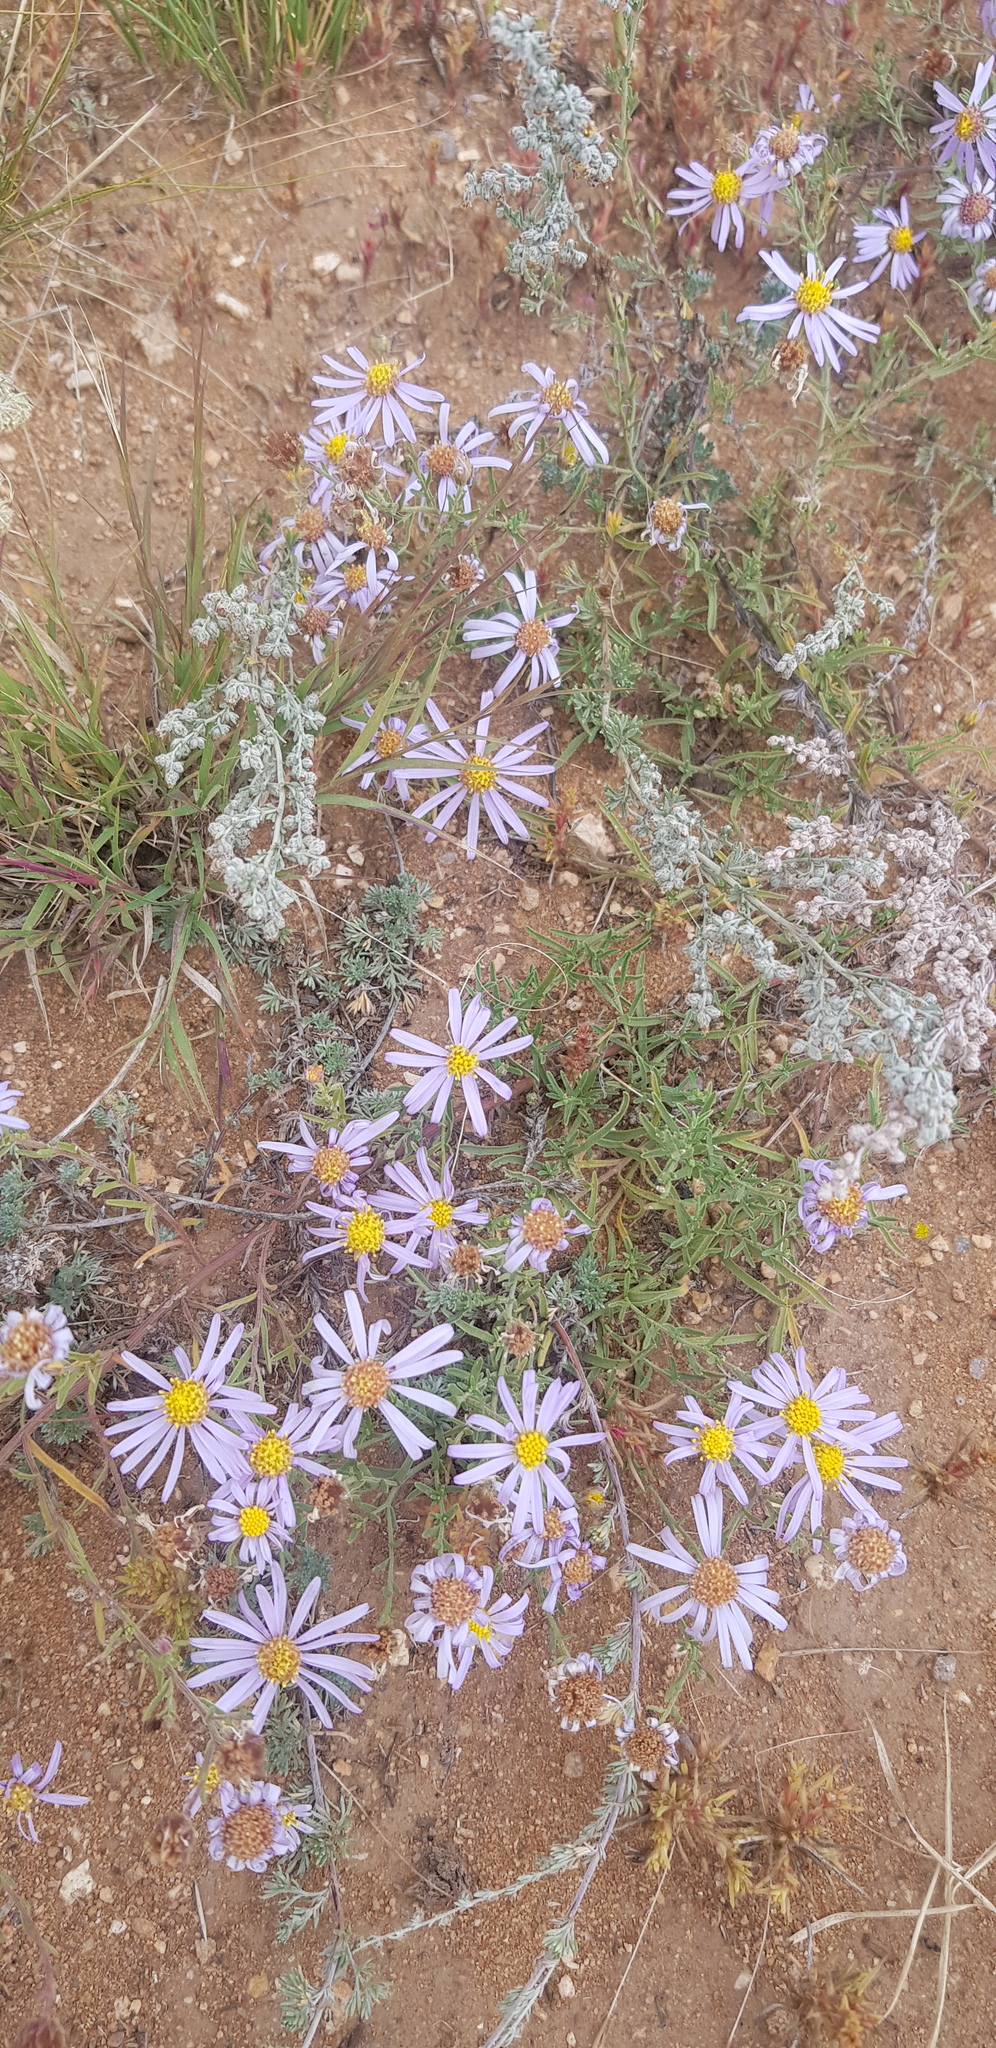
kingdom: Plantae
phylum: Tracheophyta
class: Magnoliopsida
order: Asterales
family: Asteraceae
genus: Heteropappus
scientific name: Heteropappus altaicus
